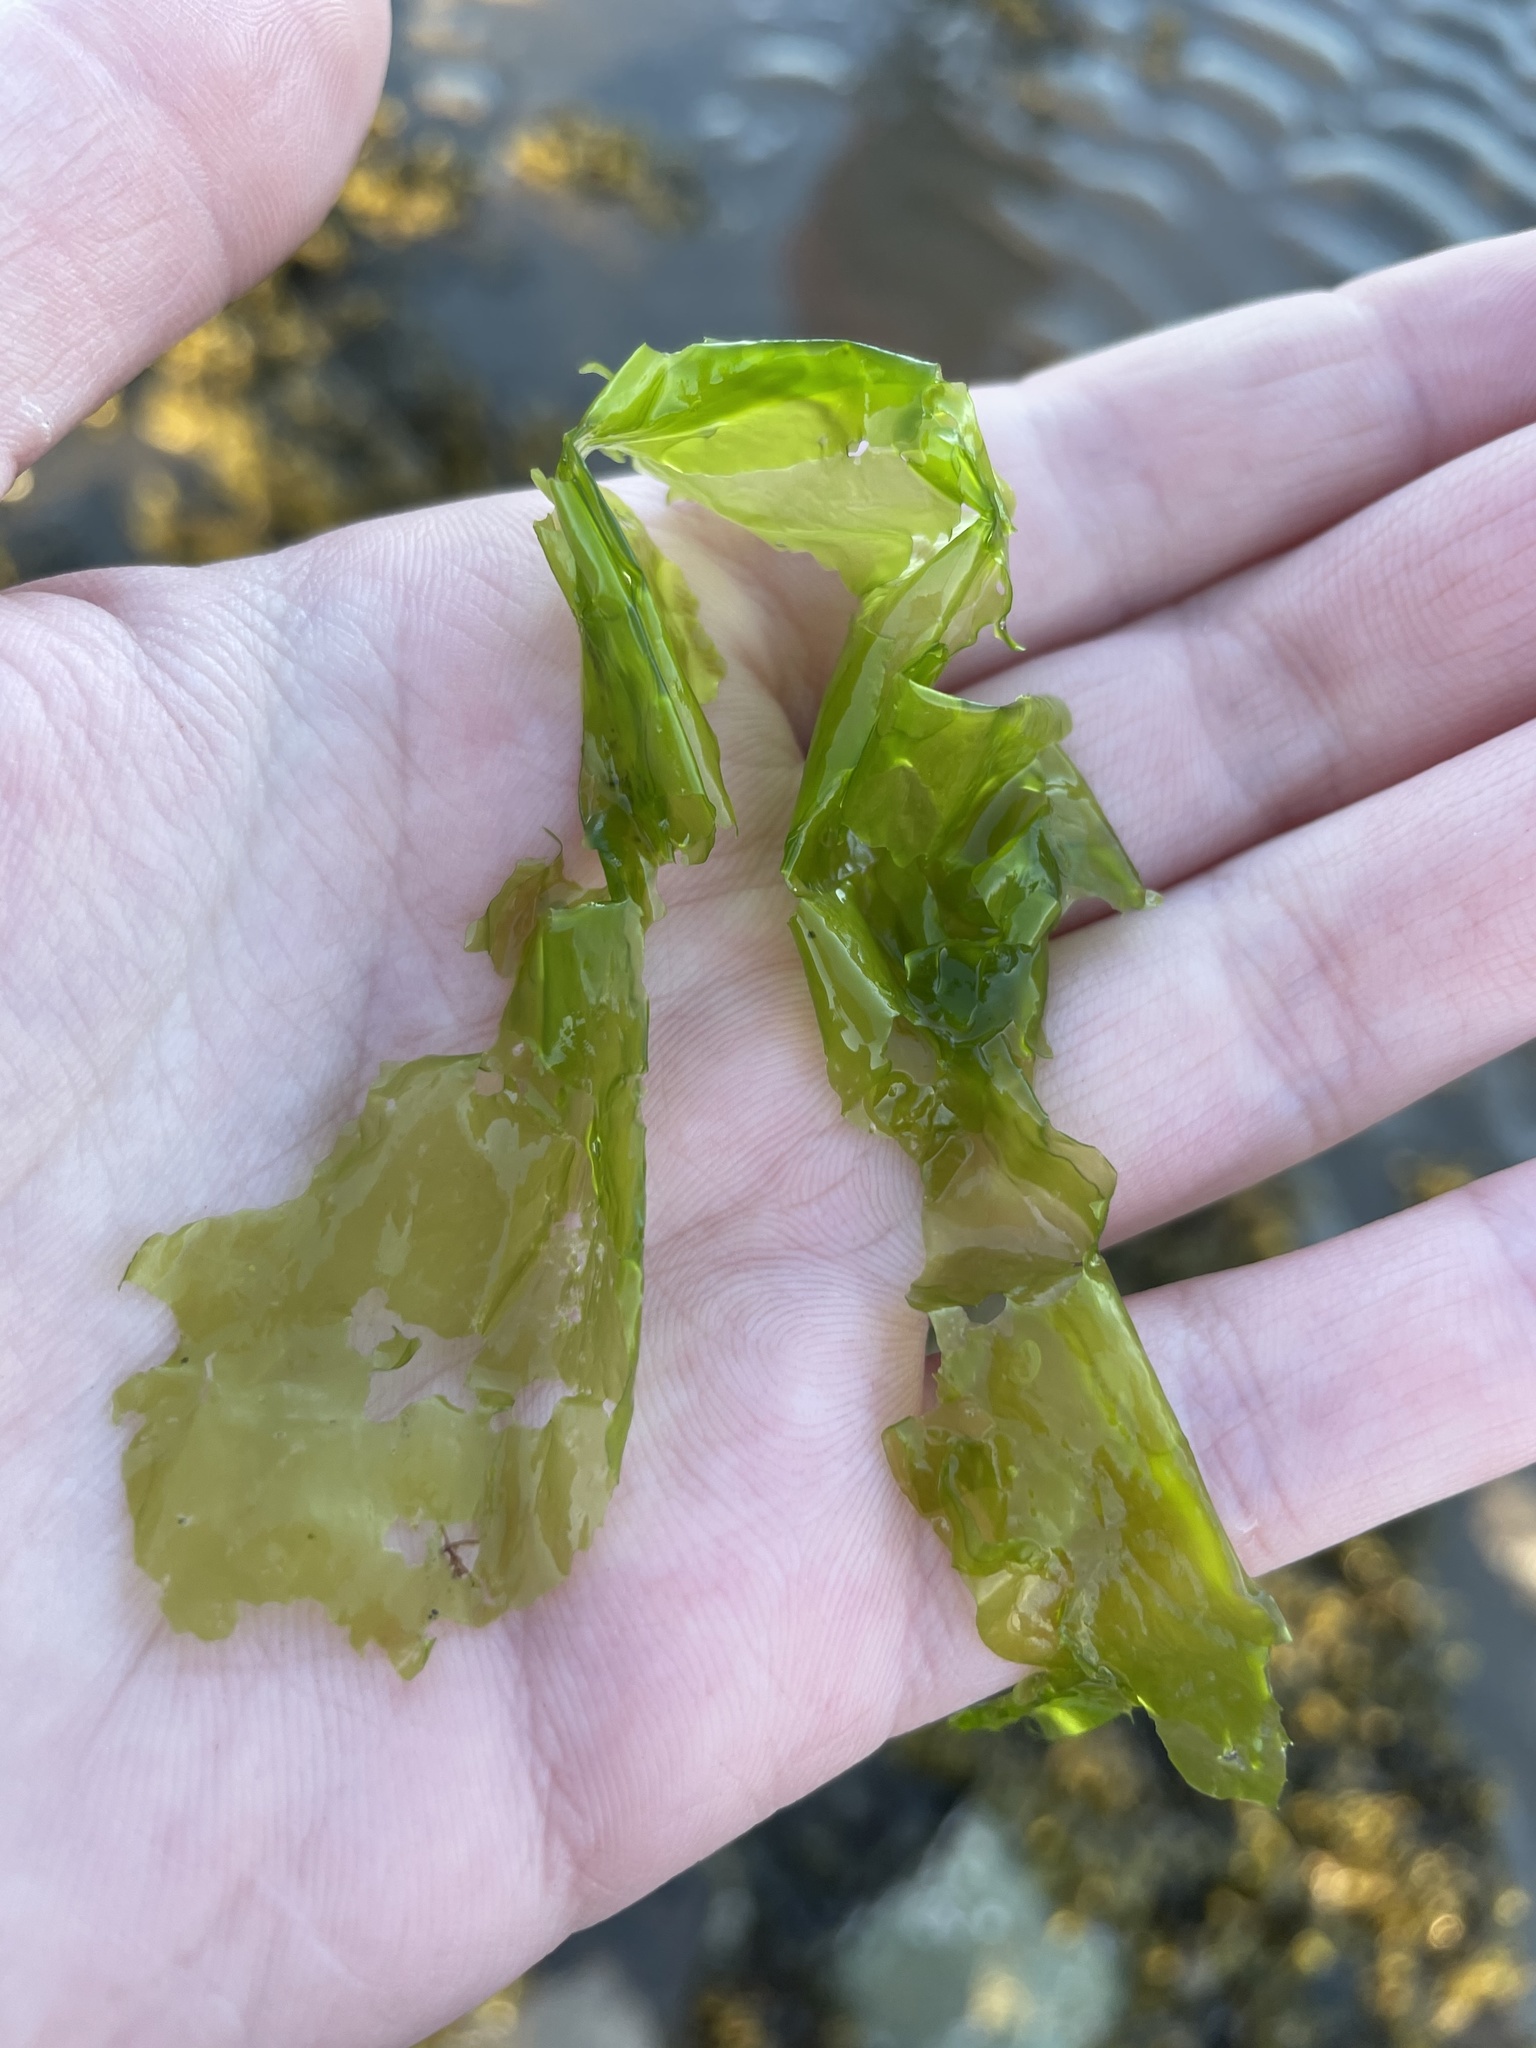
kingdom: Plantae
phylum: Chlorophyta
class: Ulvophyceae
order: Ulvales
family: Ulvaceae
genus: Ulva
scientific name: Ulva lactuca
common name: Sea lettuce
